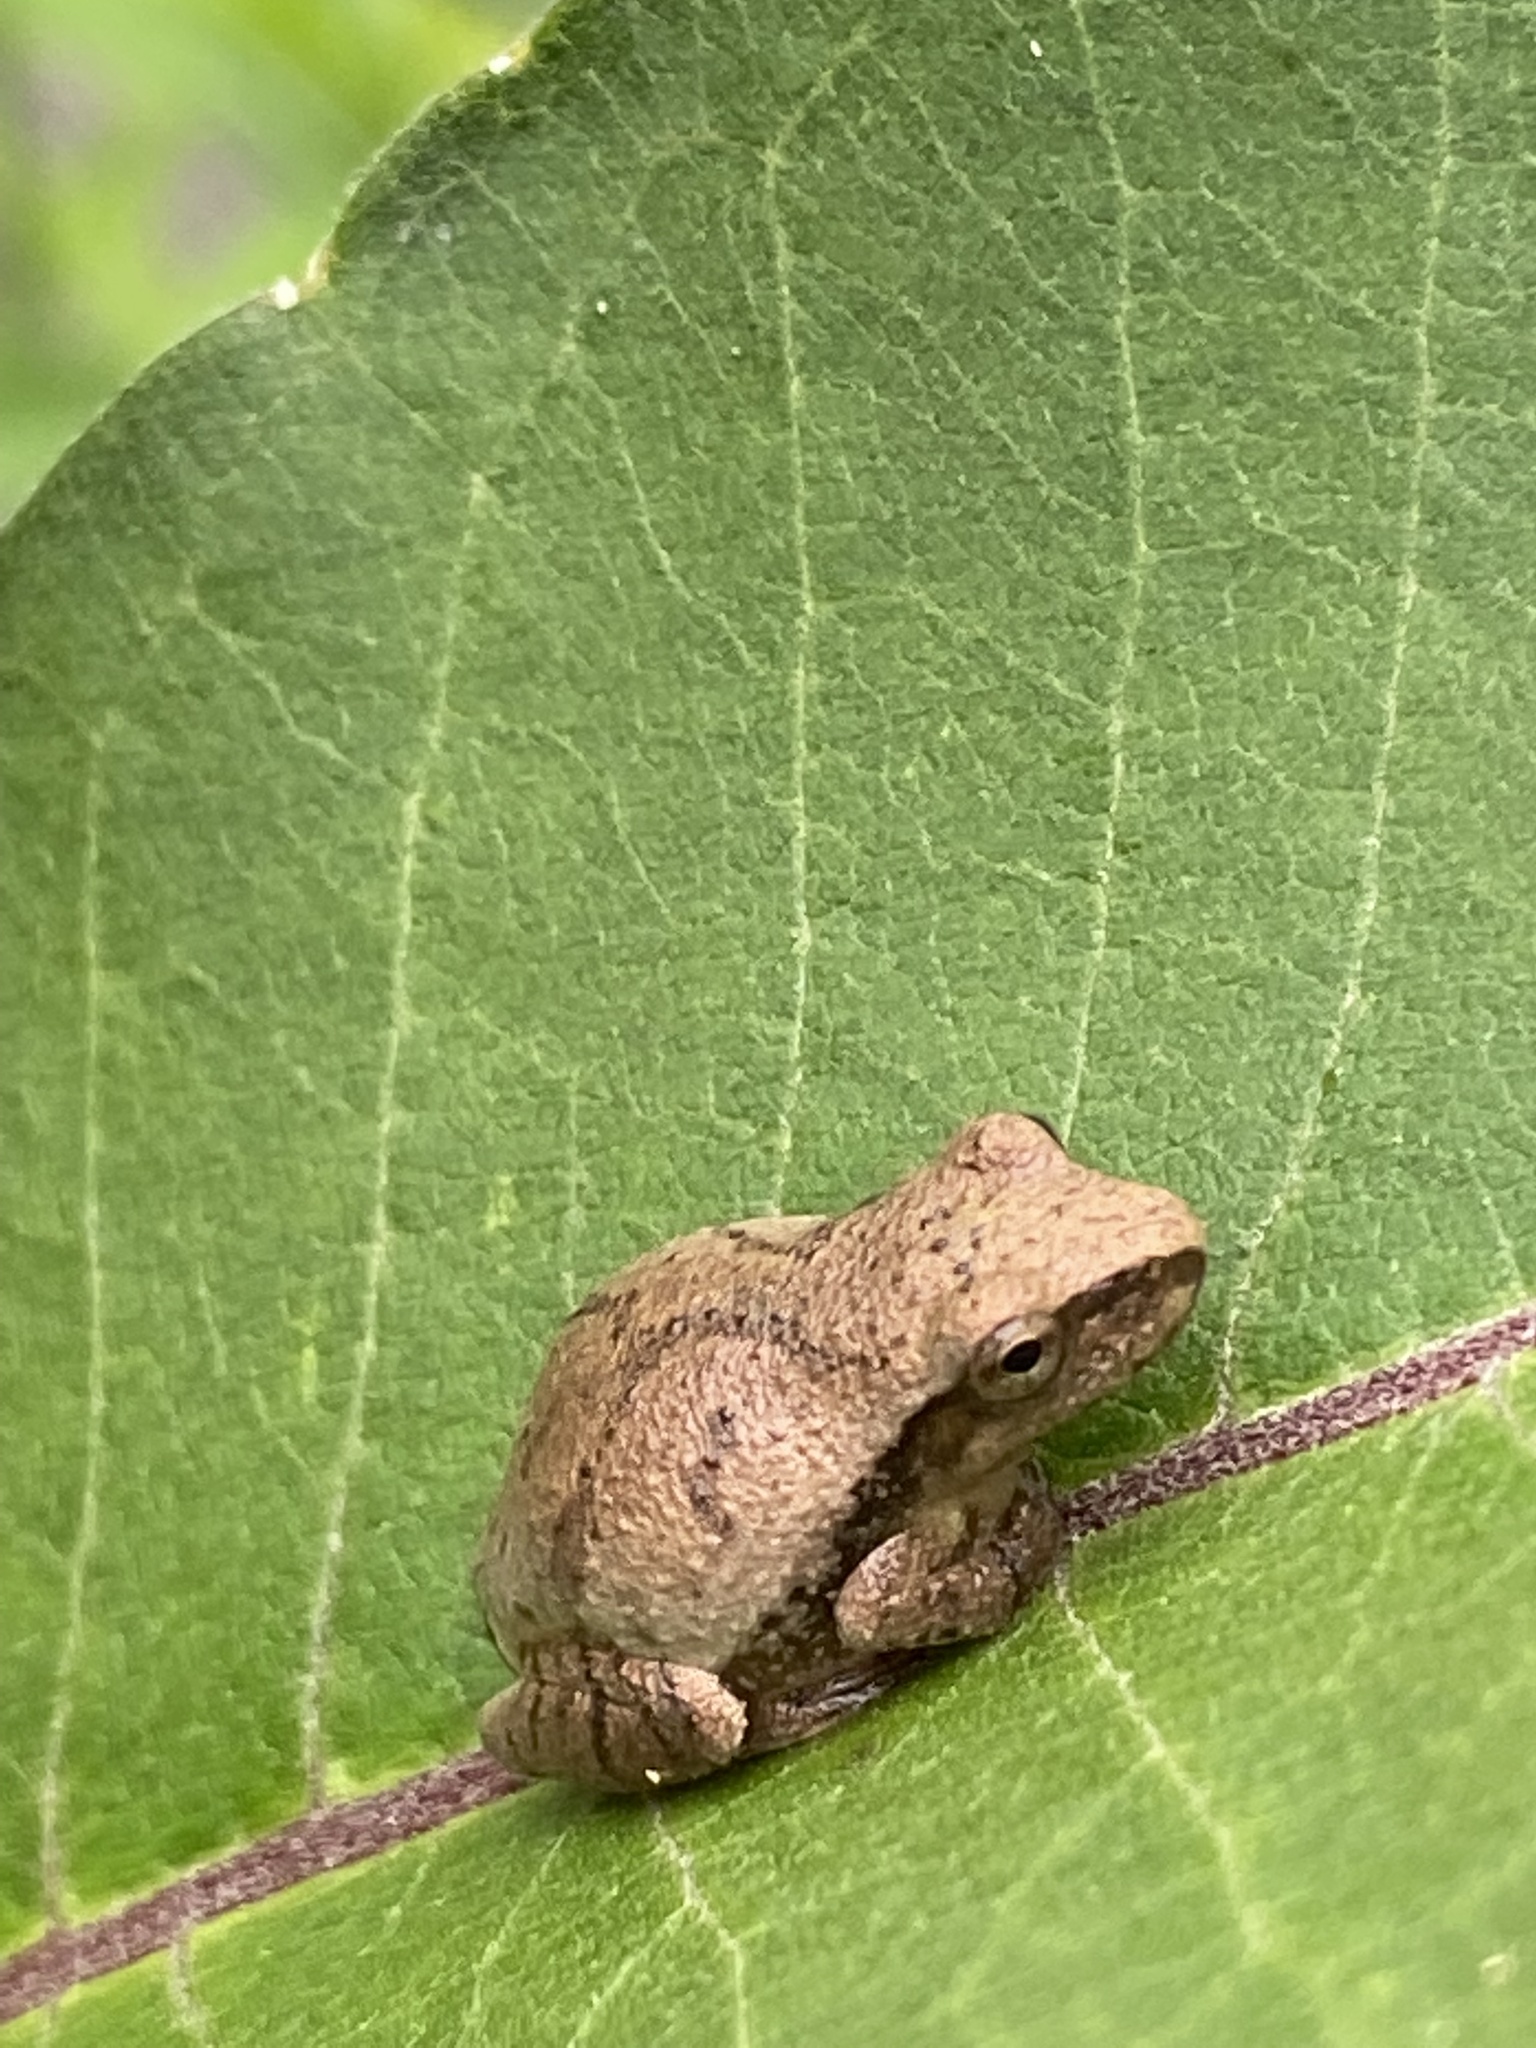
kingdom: Animalia
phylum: Chordata
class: Amphibia
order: Anura
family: Hylidae
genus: Pseudacris
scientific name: Pseudacris crucifer
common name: Spring peeper
